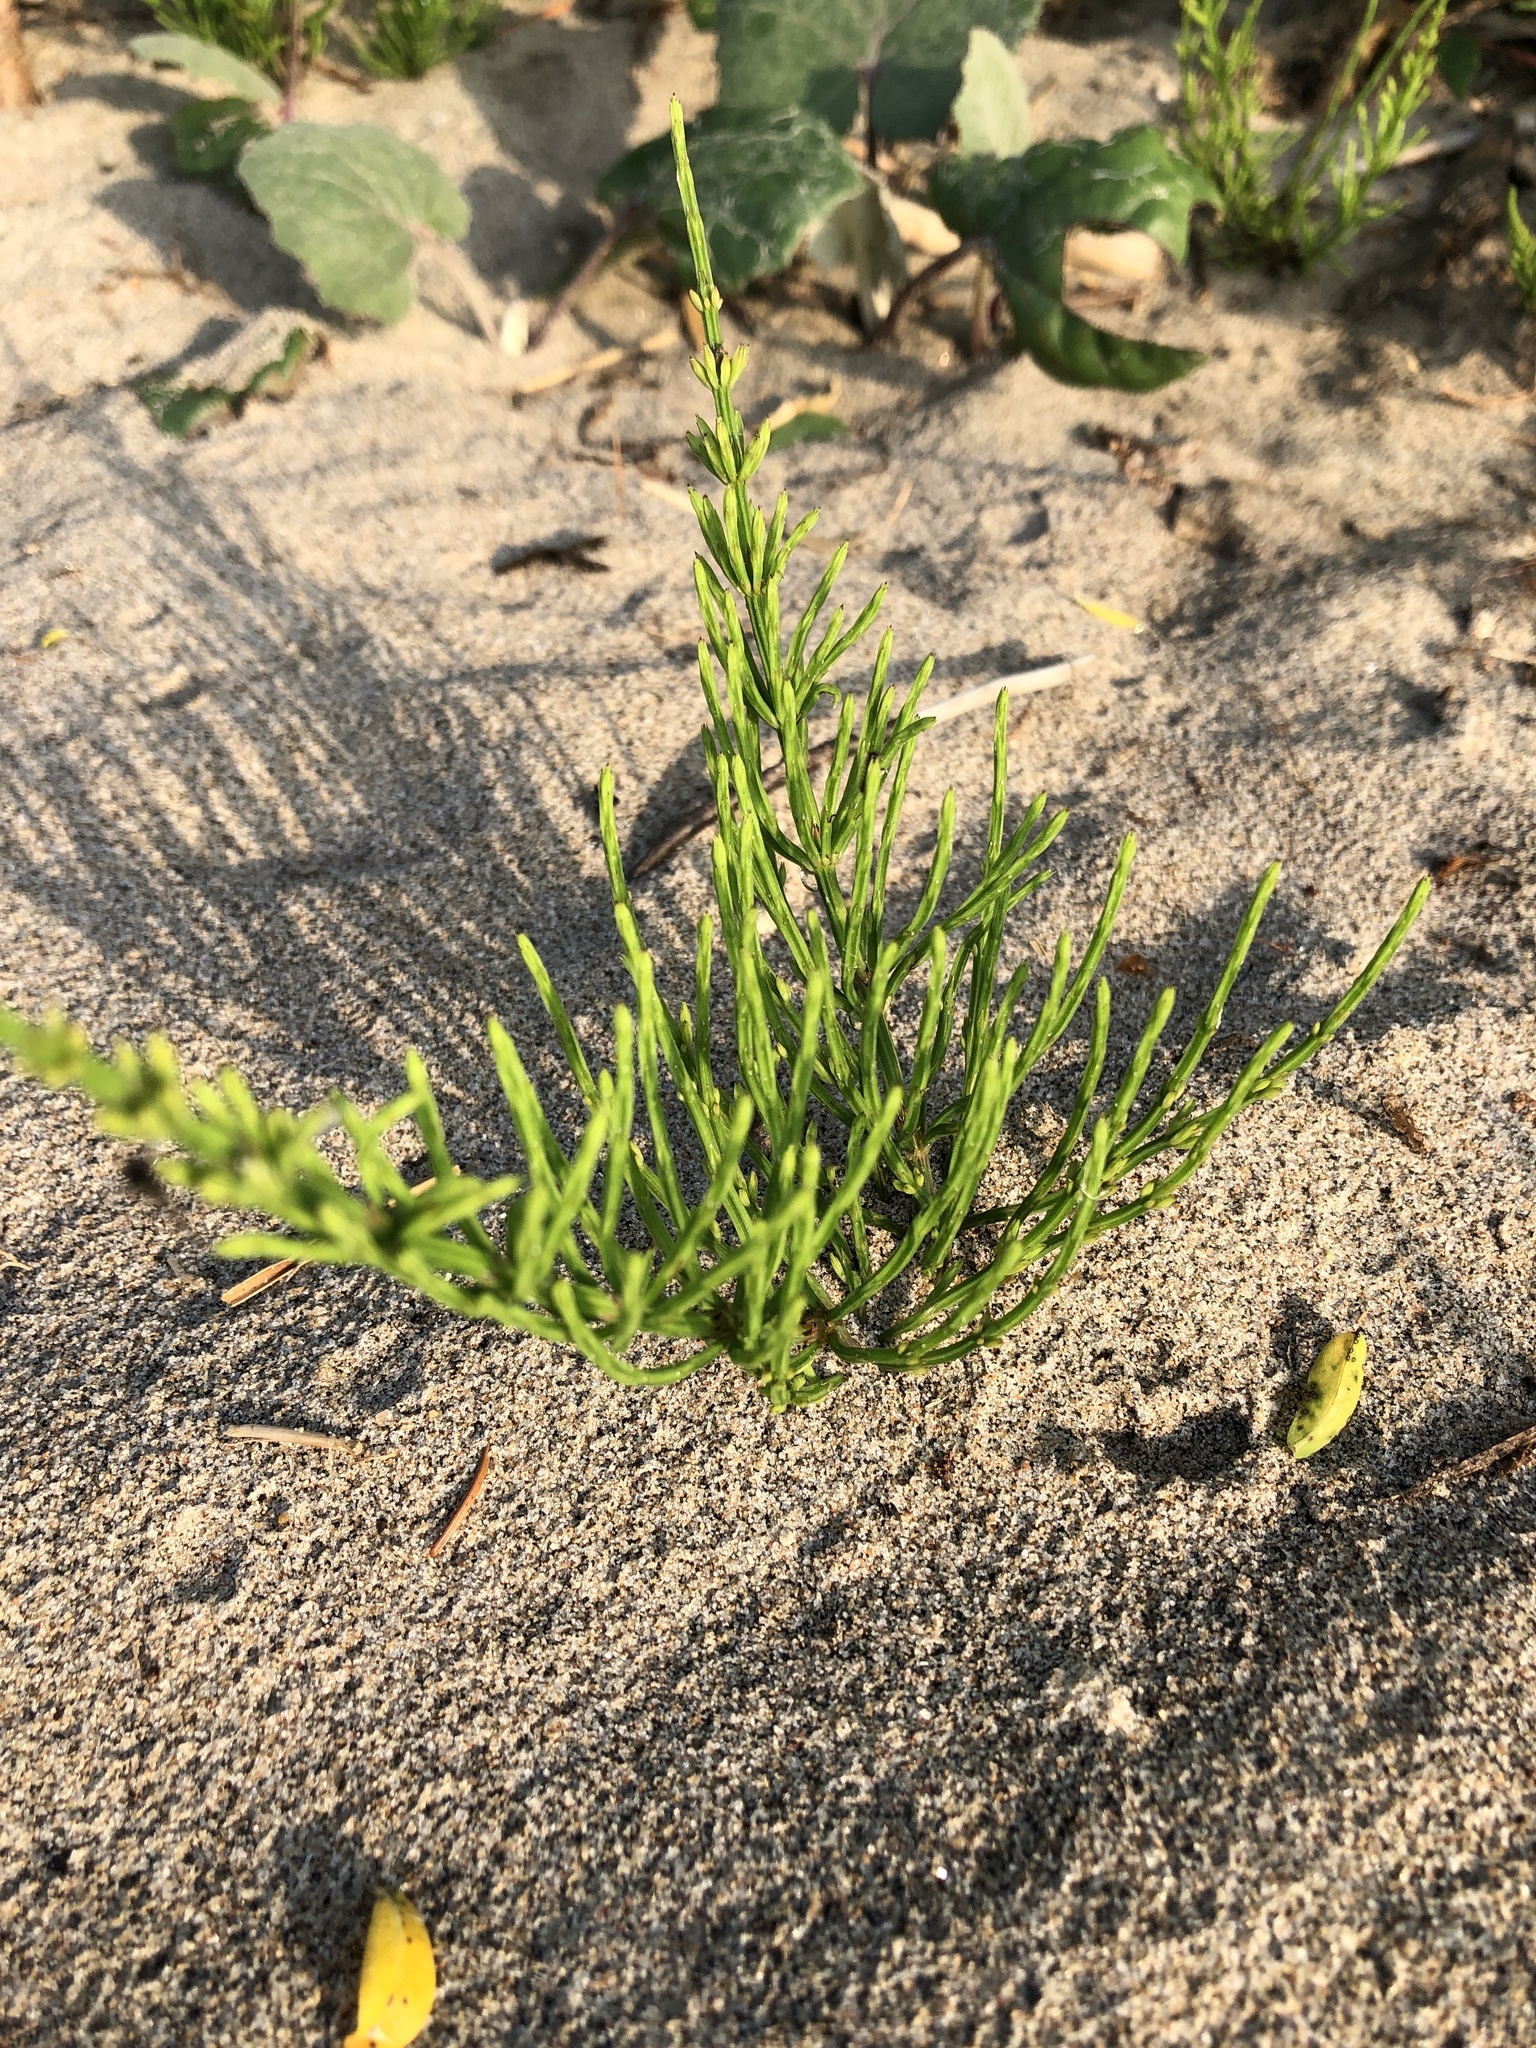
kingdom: Plantae
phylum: Tracheophyta
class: Polypodiopsida
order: Equisetales
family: Equisetaceae
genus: Equisetum
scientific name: Equisetum arvense
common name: Field horsetail
